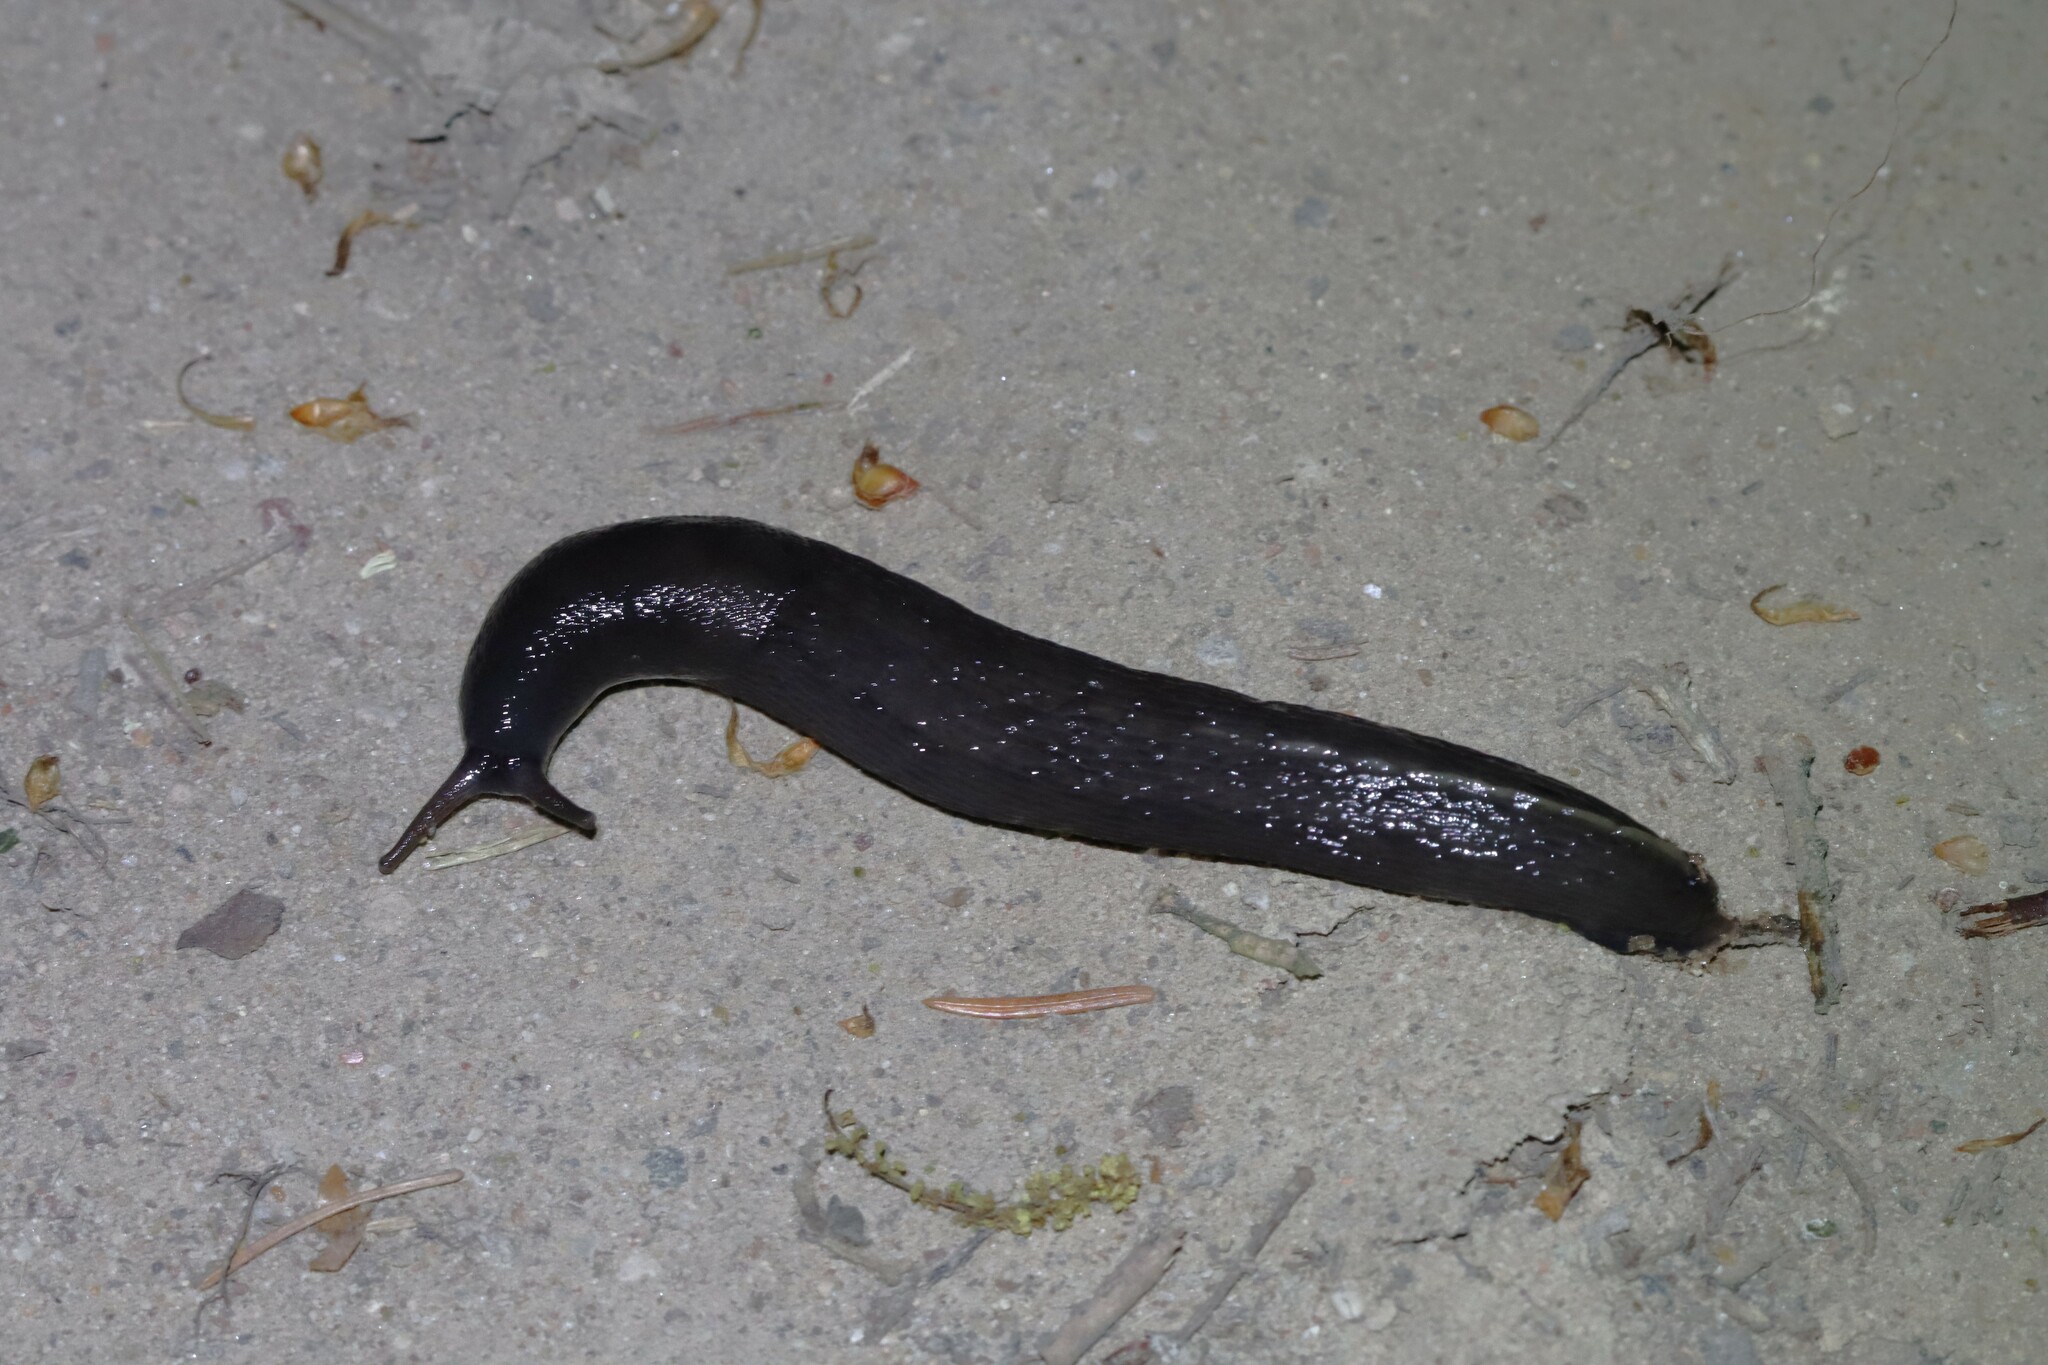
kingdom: Animalia
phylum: Mollusca
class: Gastropoda
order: Stylommatophora
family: Limacidae
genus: Limax
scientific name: Limax cinereoniger
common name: Ash-black slug
